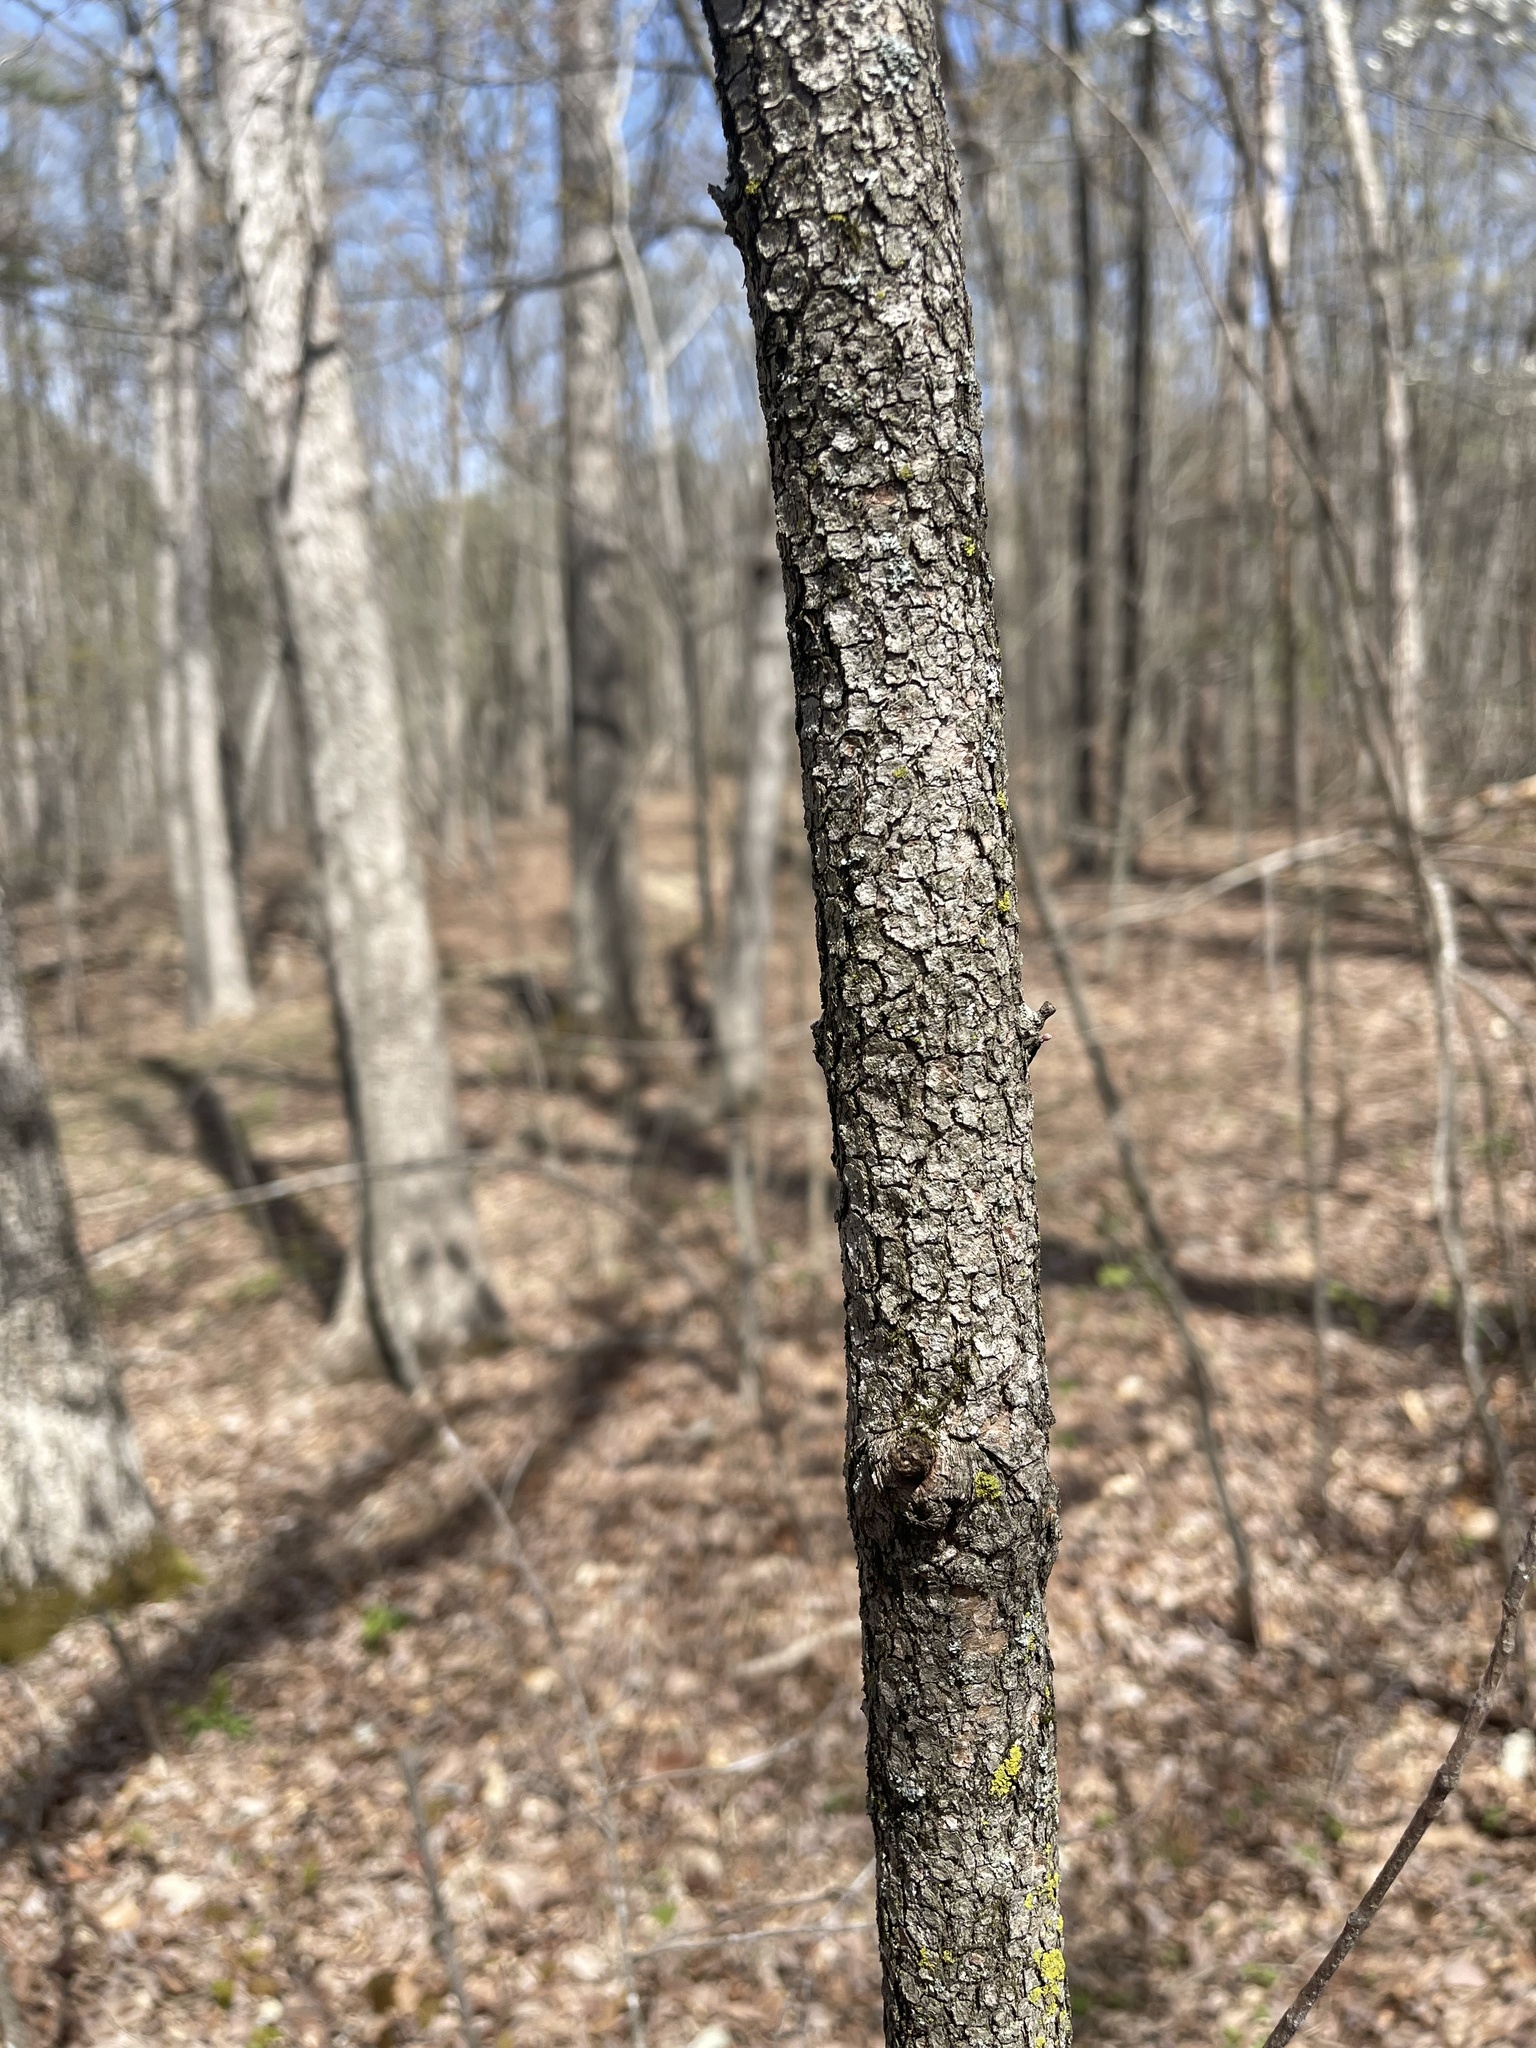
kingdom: Plantae
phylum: Tracheophyta
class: Magnoliopsida
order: Cornales
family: Cornaceae
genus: Cornus
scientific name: Cornus florida
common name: Flowering dogwood
